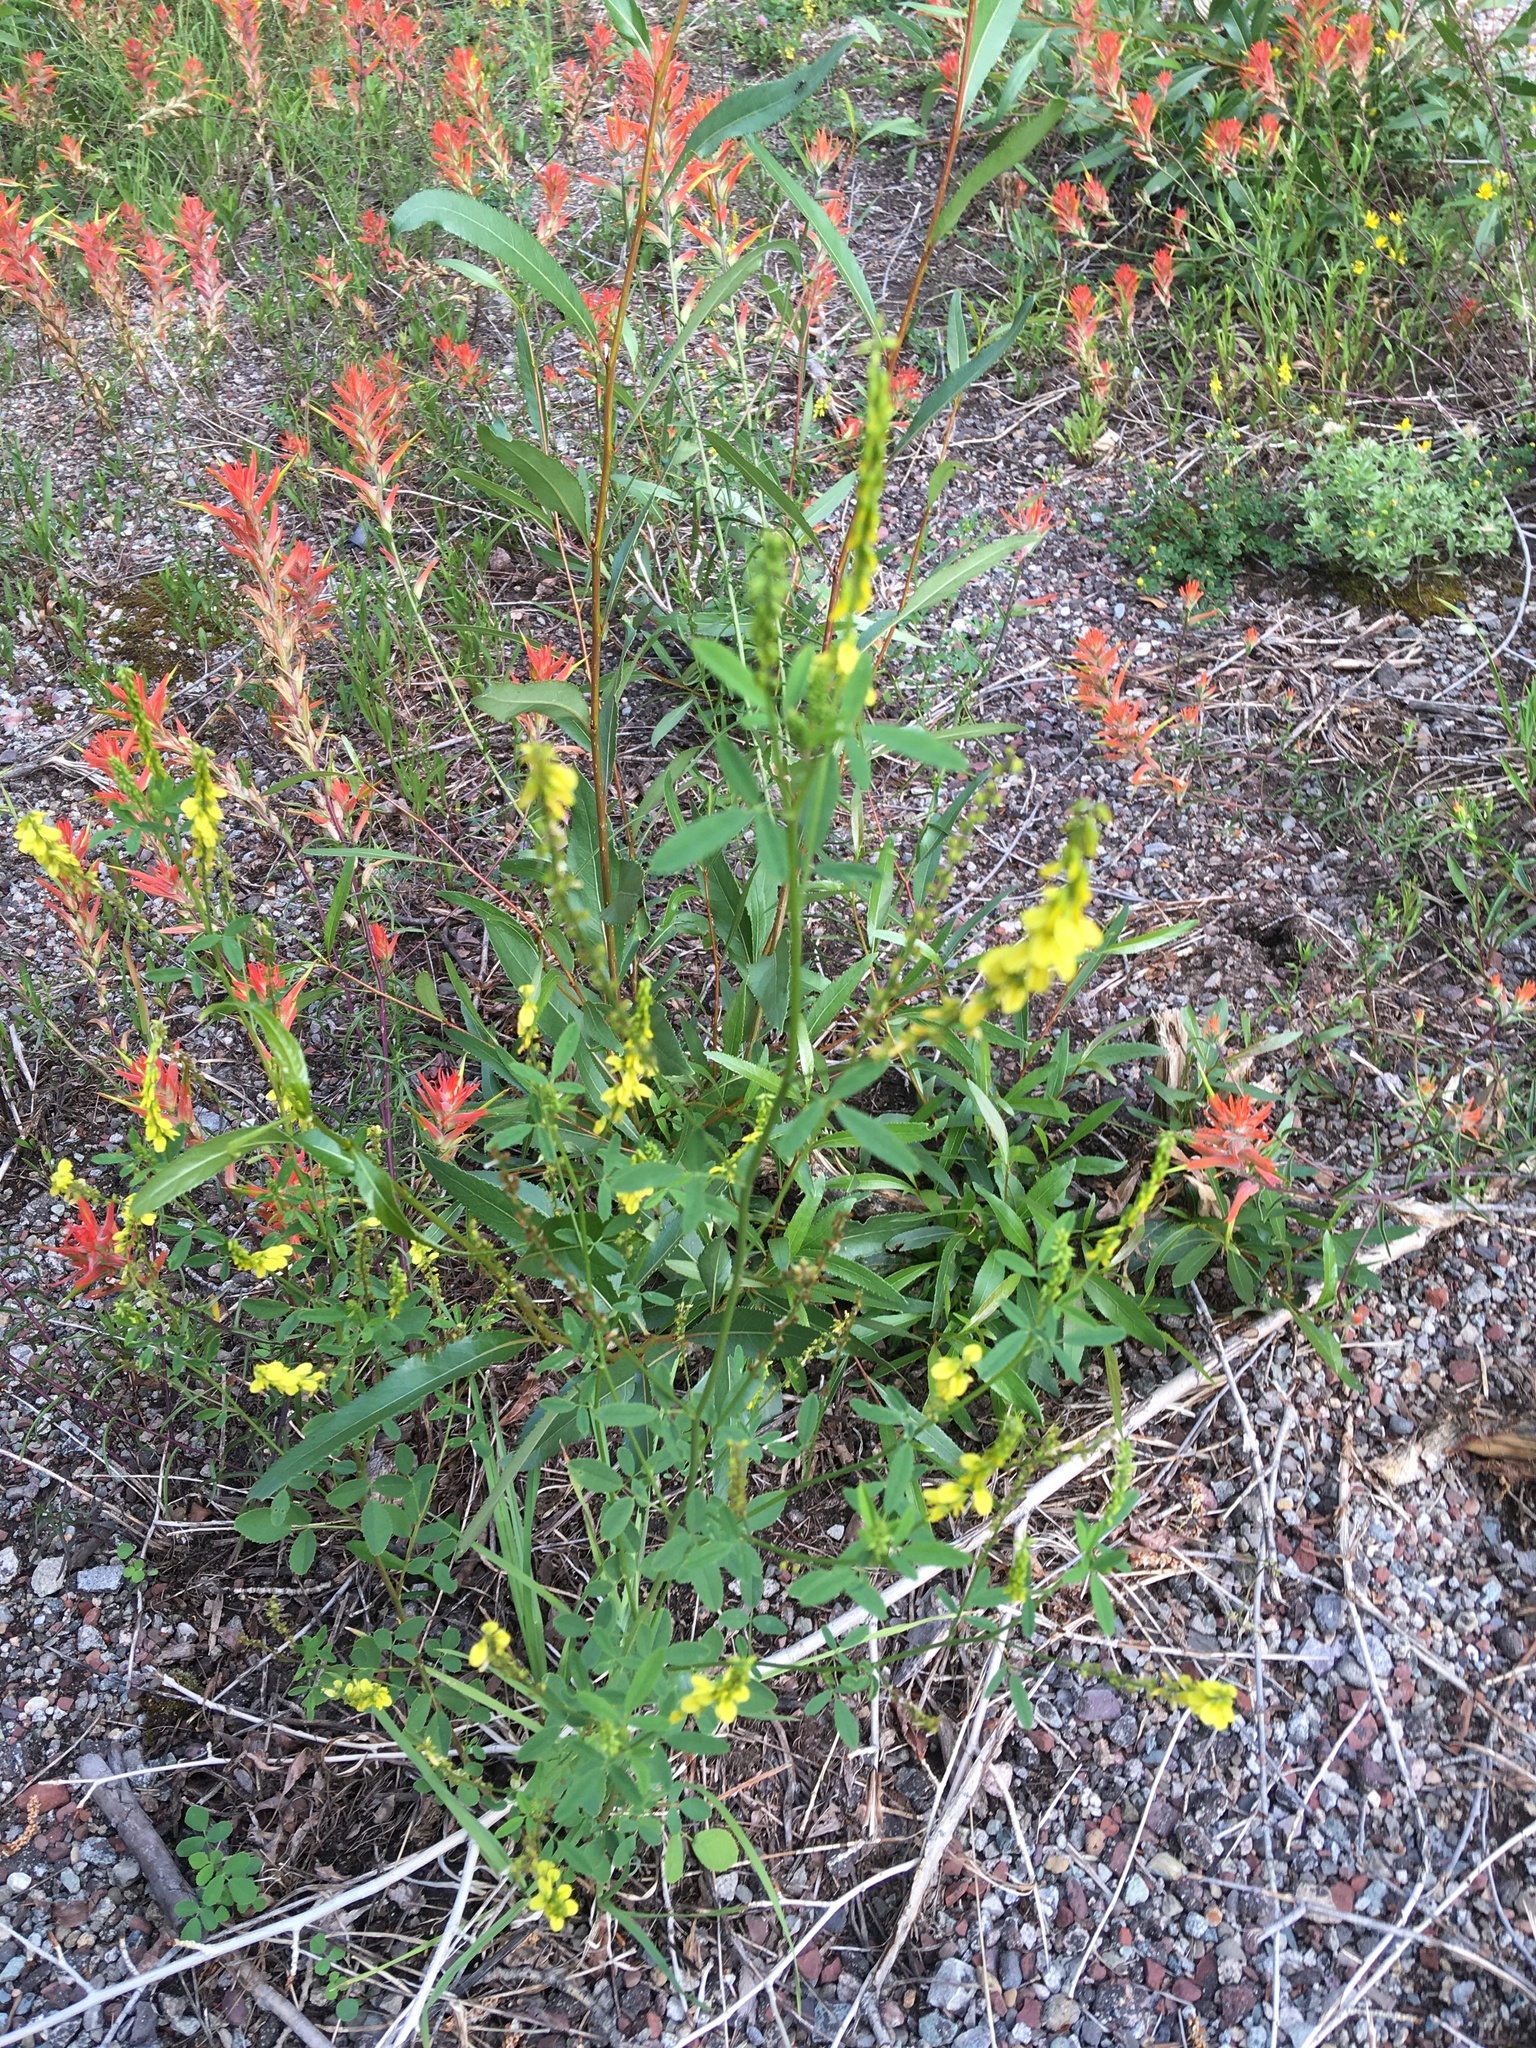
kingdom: Plantae
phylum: Tracheophyta
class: Magnoliopsida
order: Fabales
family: Fabaceae
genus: Melilotus
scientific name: Melilotus officinalis
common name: Sweetclover
